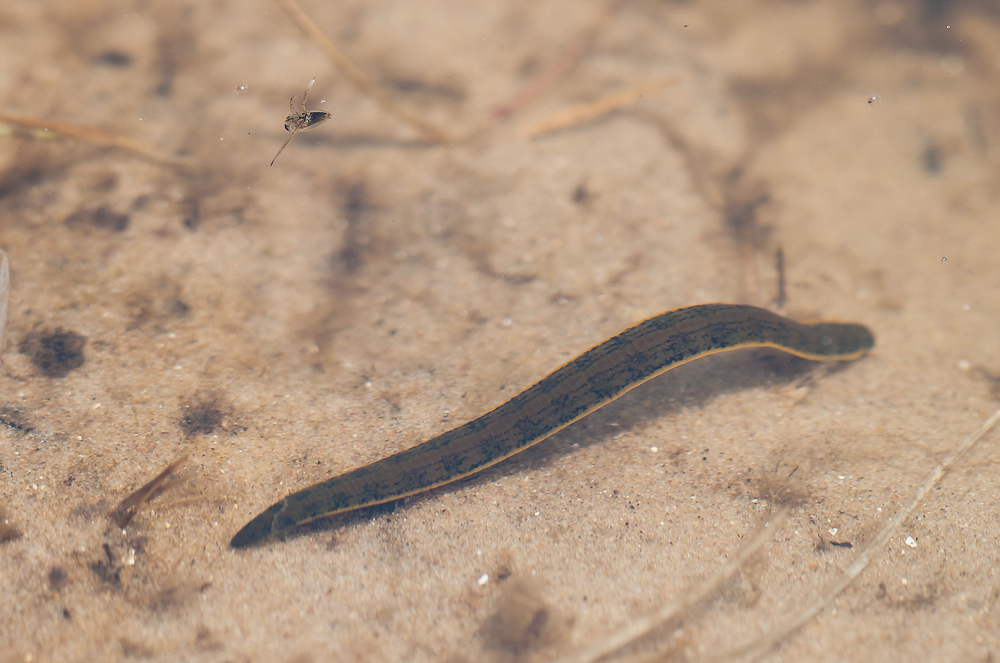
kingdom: Animalia
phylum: Annelida
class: Clitellata
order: Arhynchobdellida
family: Haemopidae
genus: Haemopis
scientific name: Haemopis sanguisuga
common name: Horse leech
